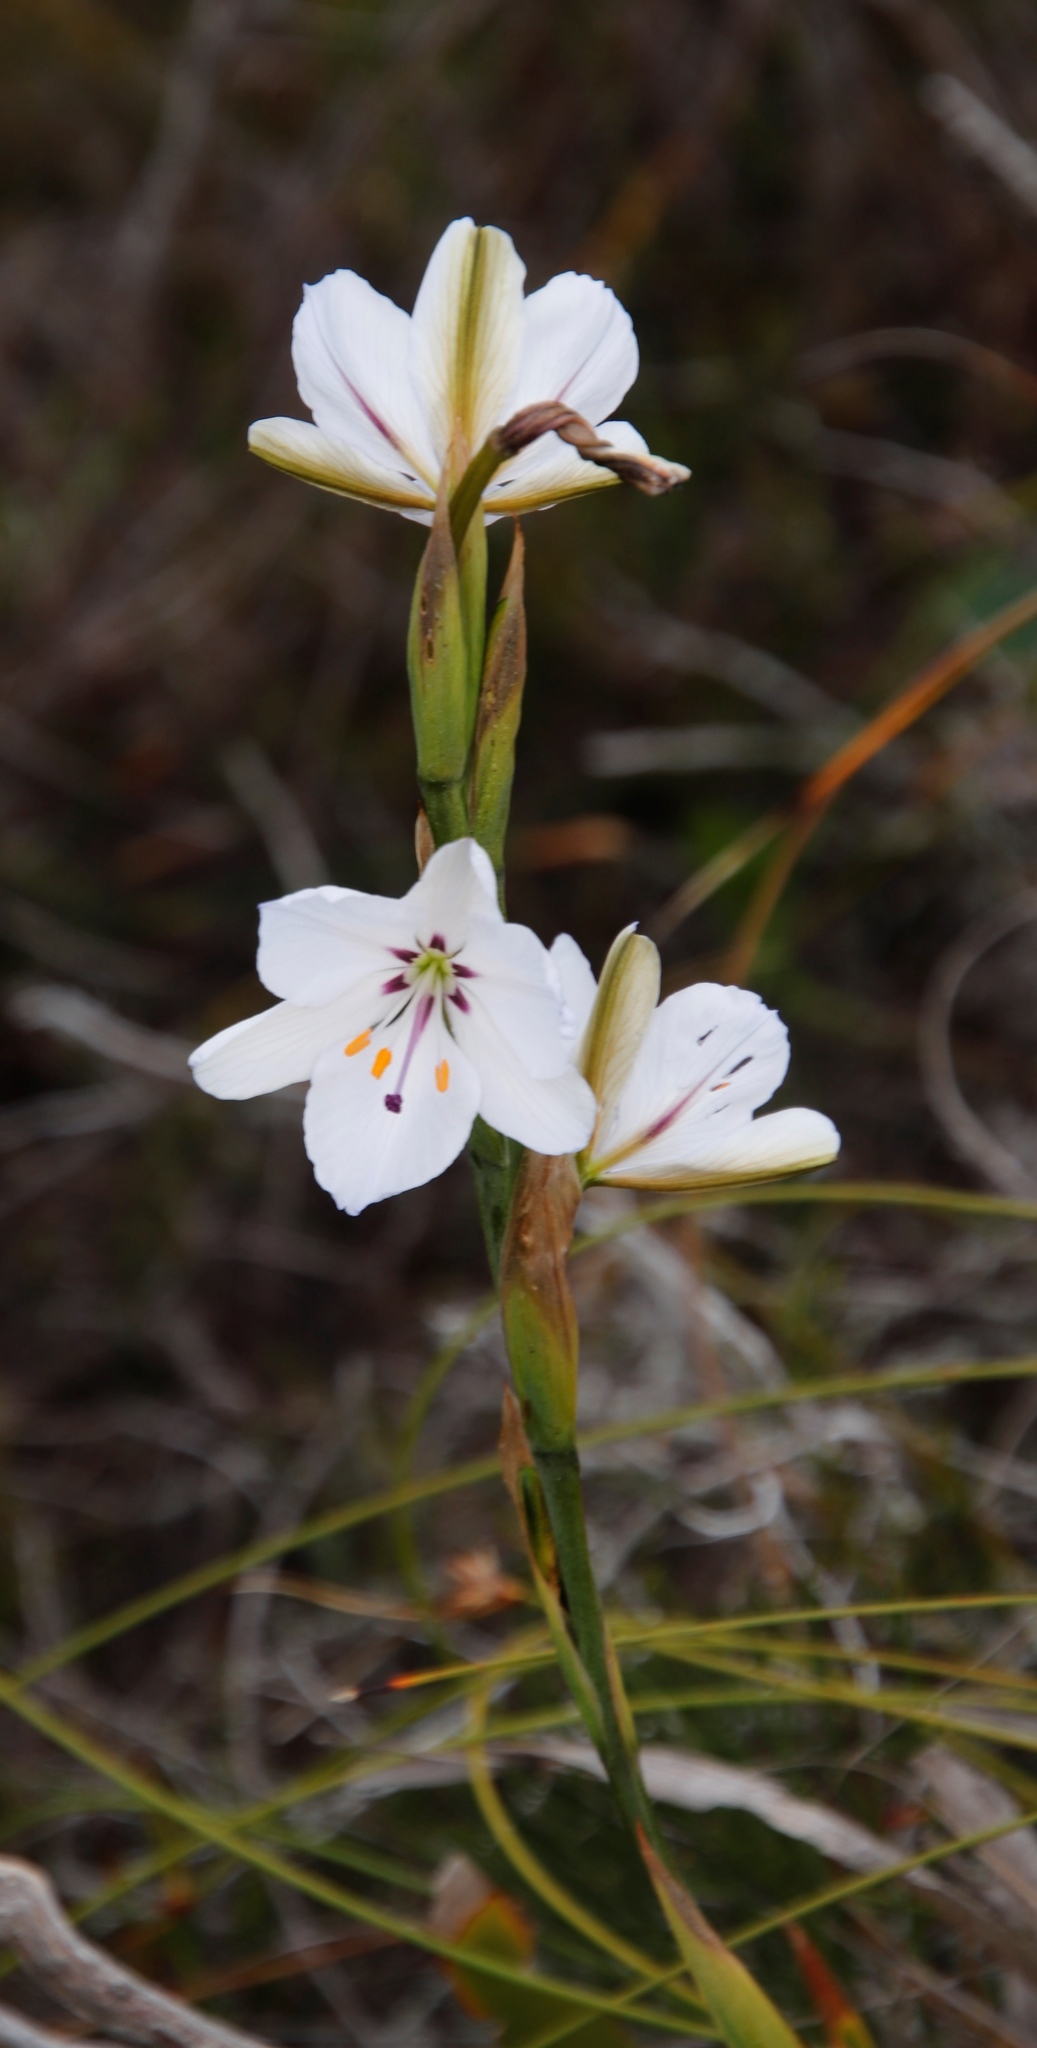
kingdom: Plantae
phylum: Tracheophyta
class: Liliopsida
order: Asparagales
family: Iridaceae
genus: Aristea
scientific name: Aristea spiralis
